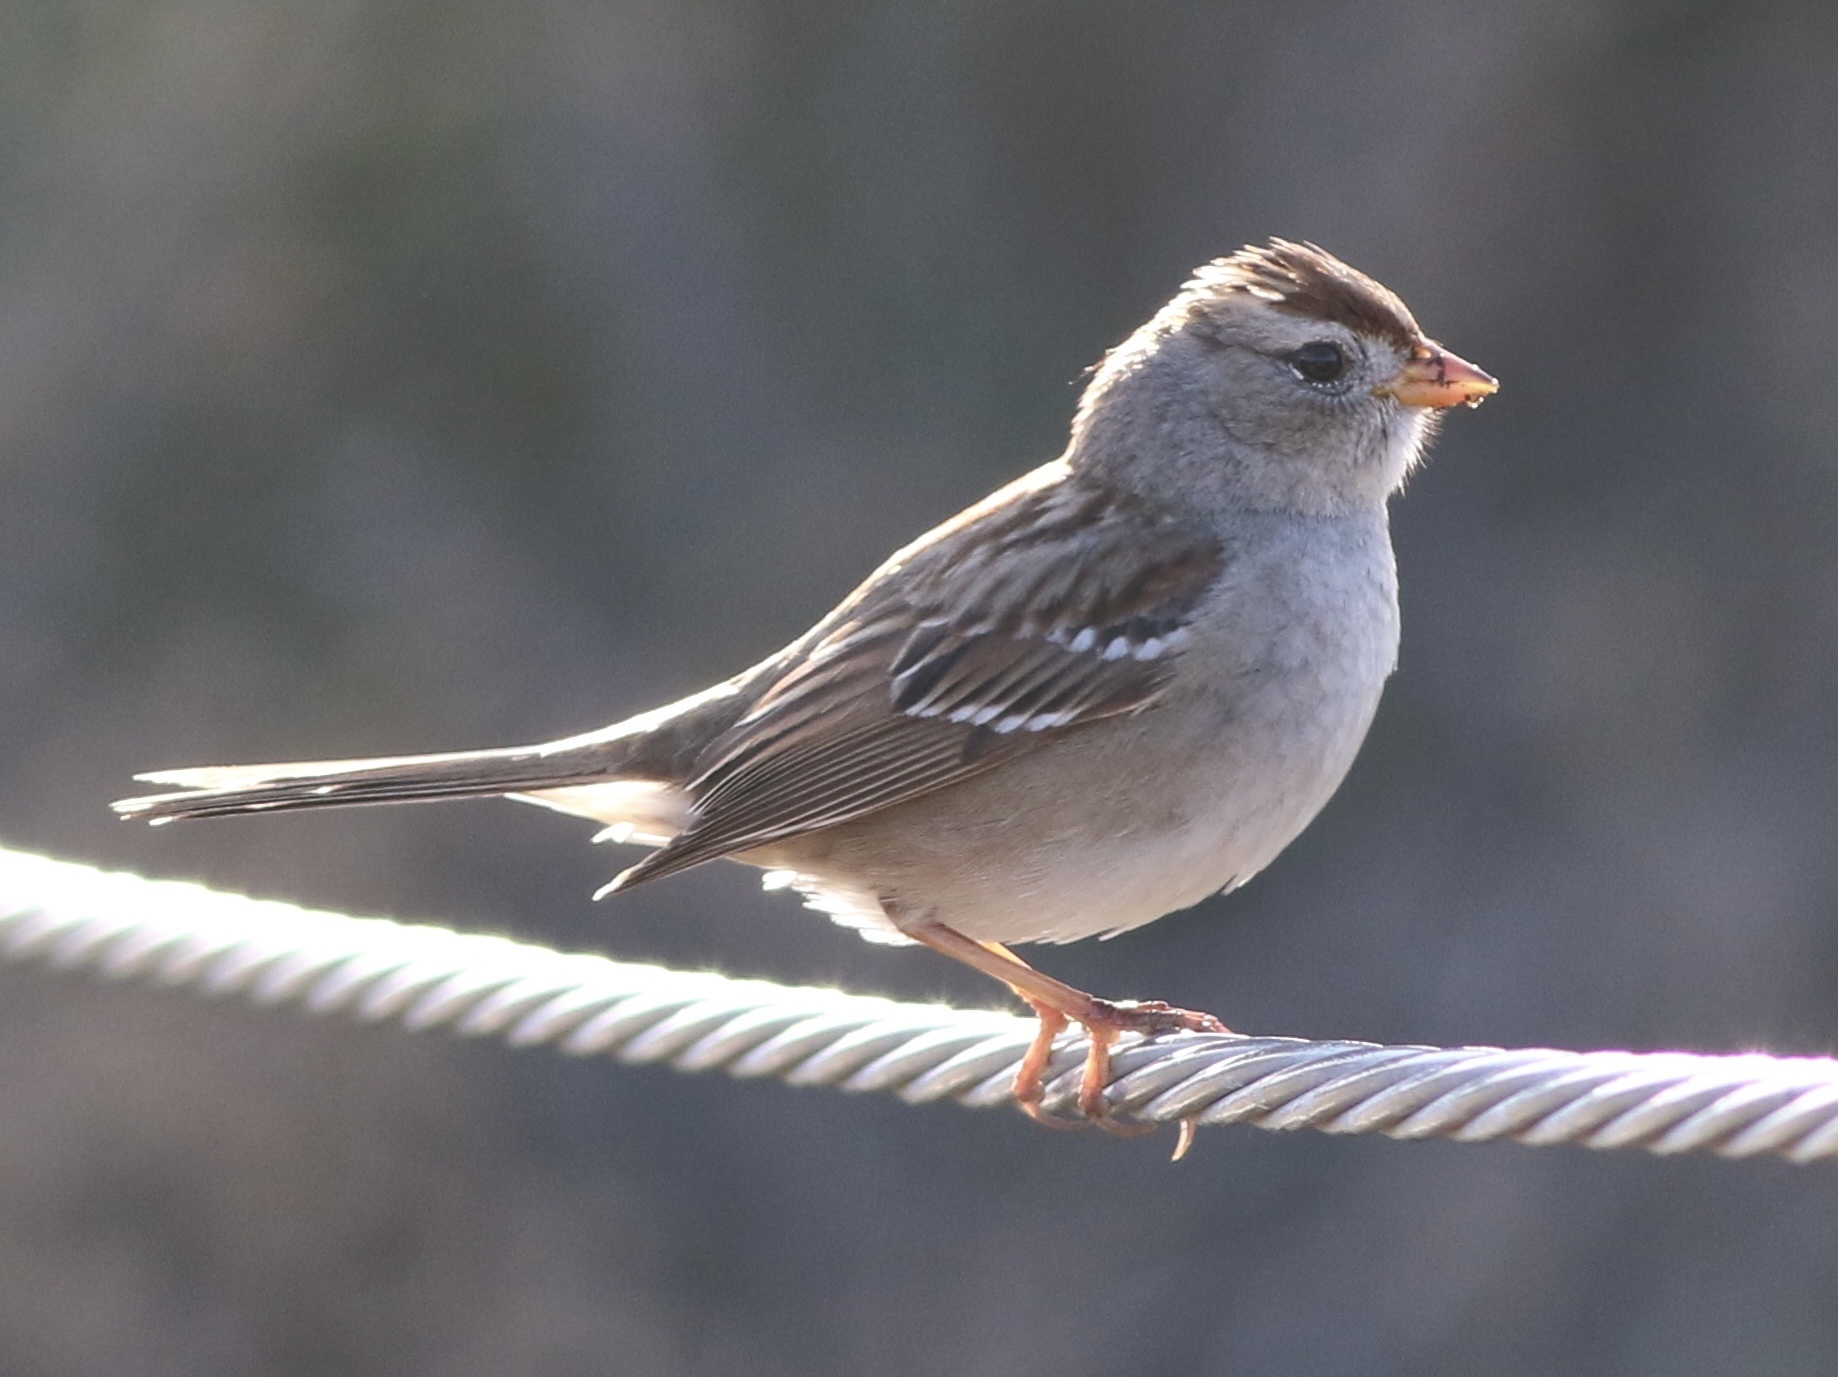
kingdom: Animalia
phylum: Chordata
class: Aves
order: Passeriformes
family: Passerellidae
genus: Zonotrichia
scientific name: Zonotrichia leucophrys
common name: White-crowned sparrow
